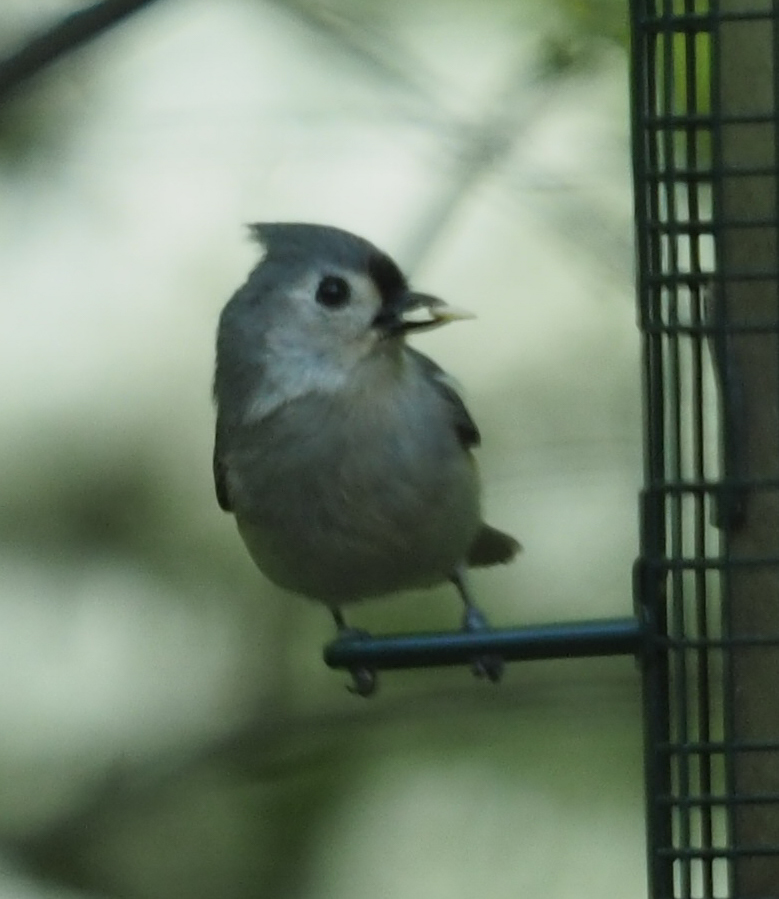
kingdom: Animalia
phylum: Chordata
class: Aves
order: Passeriformes
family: Paridae
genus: Baeolophus
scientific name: Baeolophus bicolor
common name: Tufted titmouse
